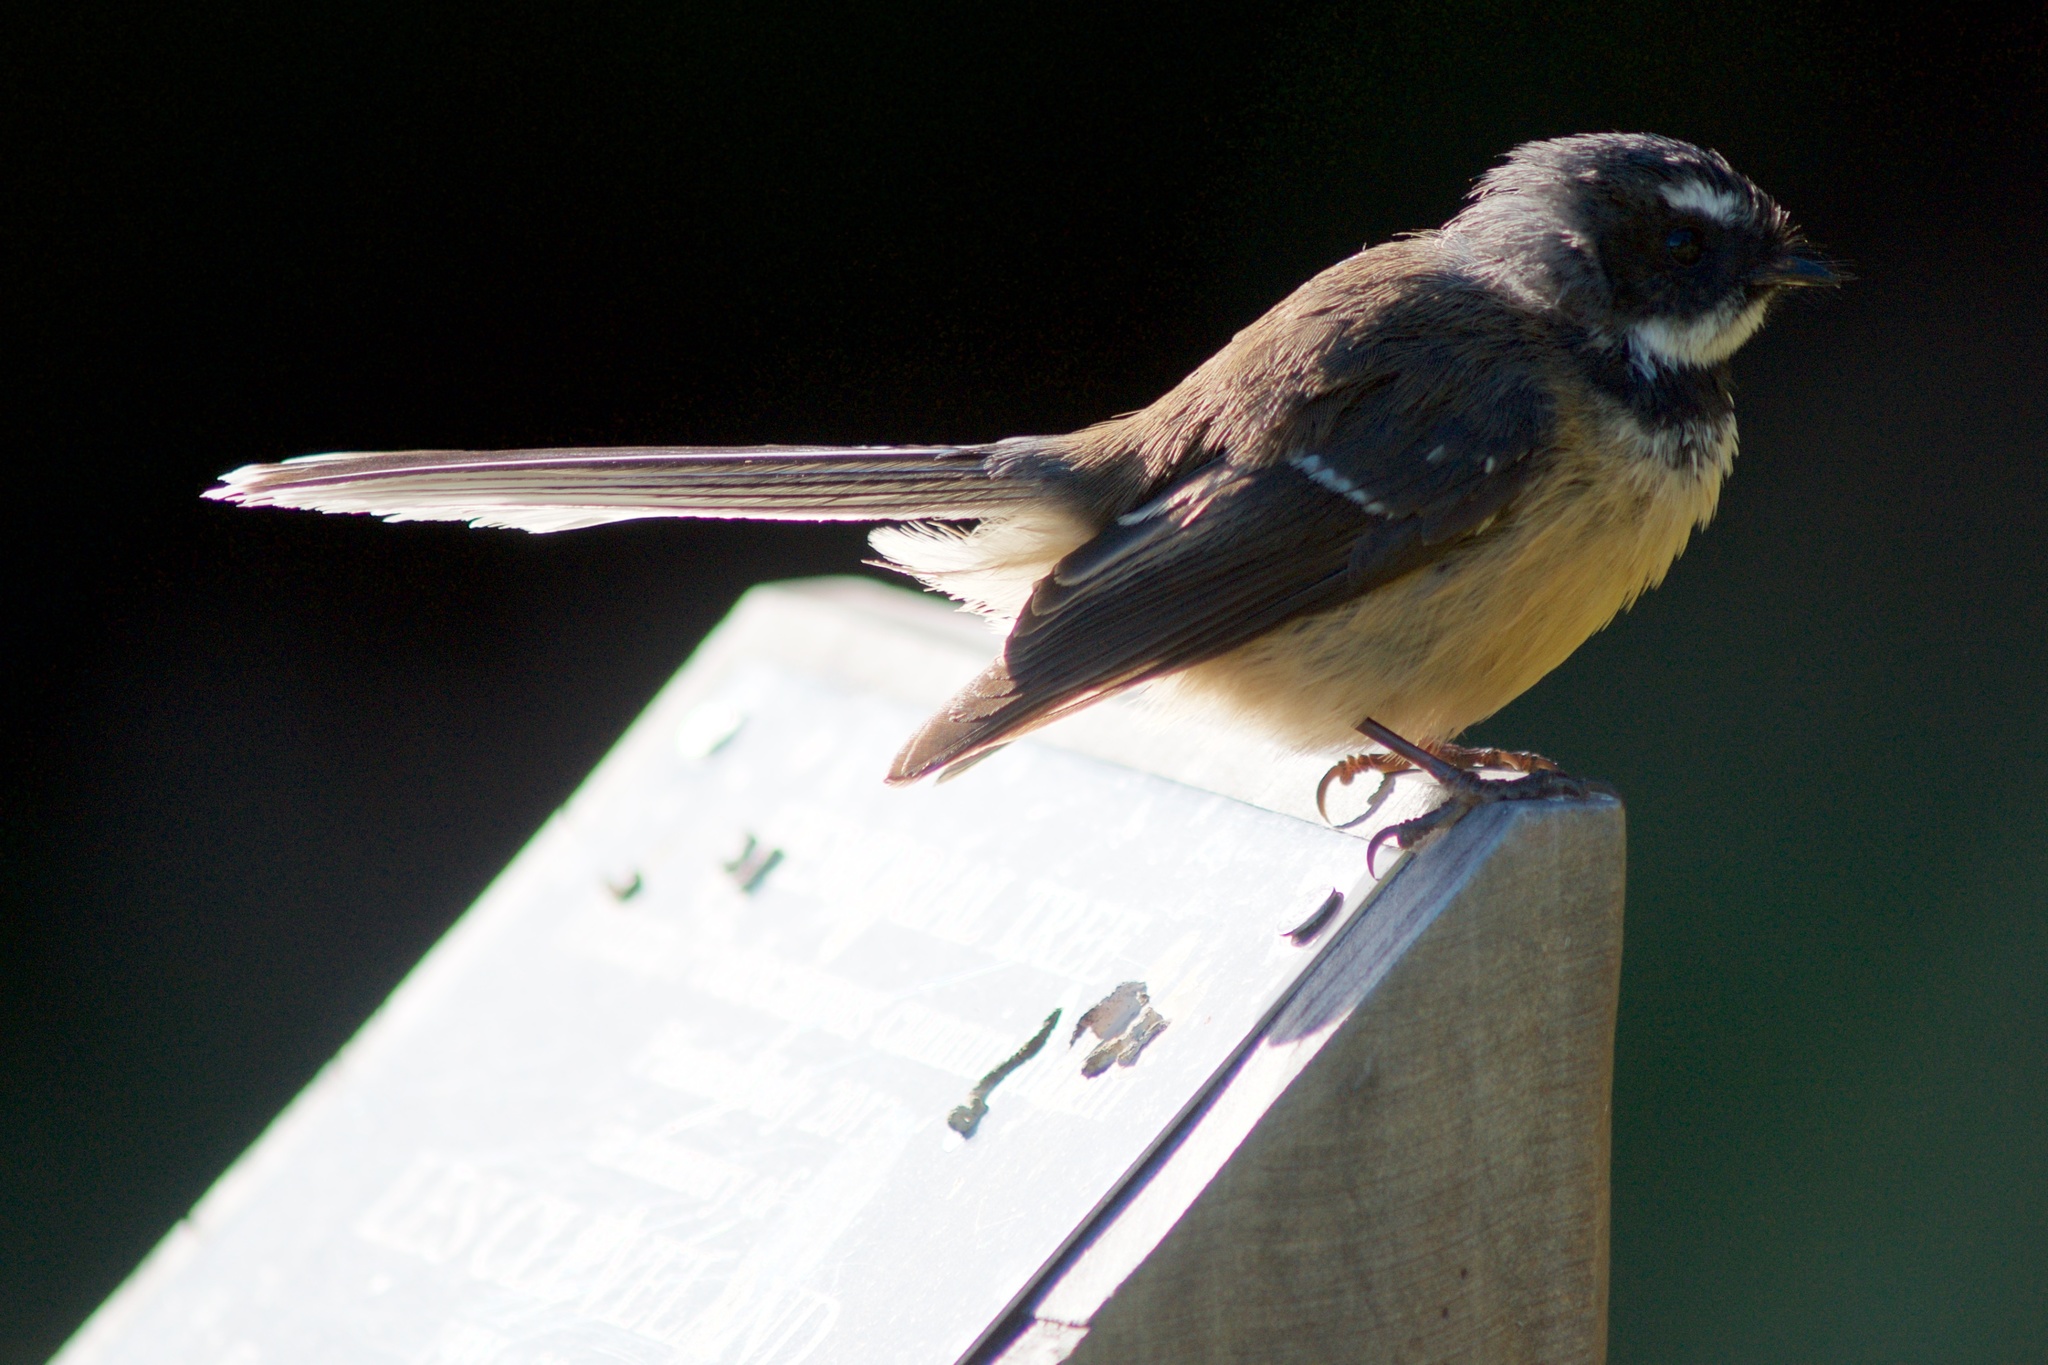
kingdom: Animalia
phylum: Chordata
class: Aves
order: Passeriformes
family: Rhipiduridae
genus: Rhipidura
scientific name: Rhipidura fuliginosa
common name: New zealand fantail
